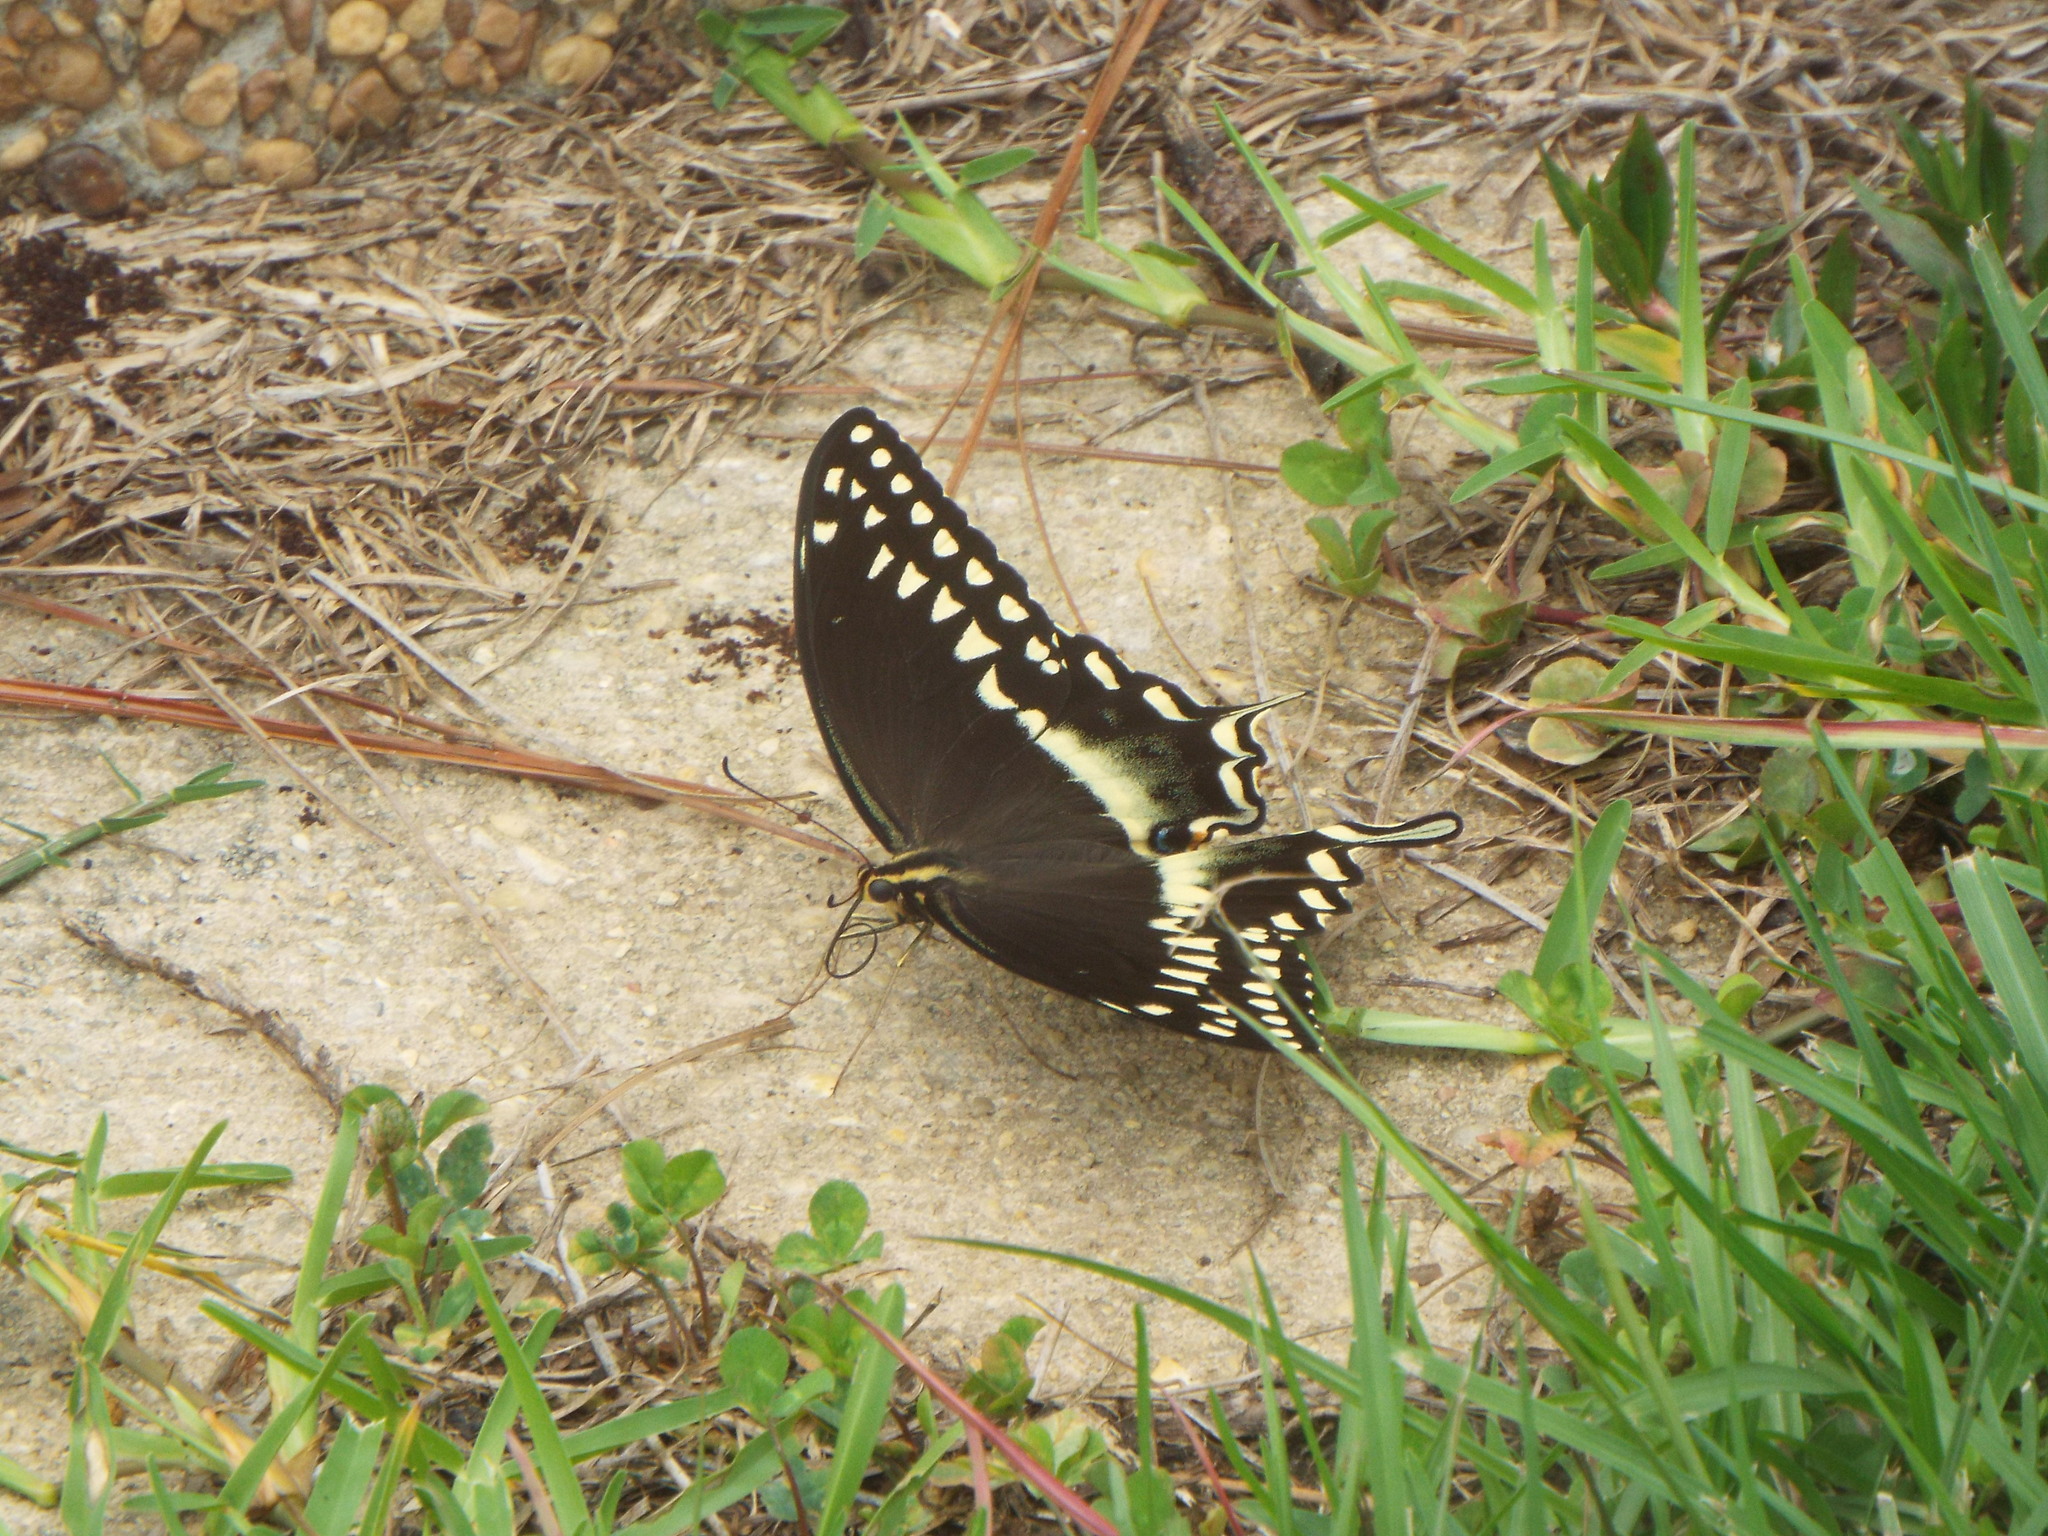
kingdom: Animalia
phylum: Arthropoda
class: Insecta
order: Lepidoptera
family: Papilionidae
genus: Papilio
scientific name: Papilio palamedes
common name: Palamedes swallowtail
